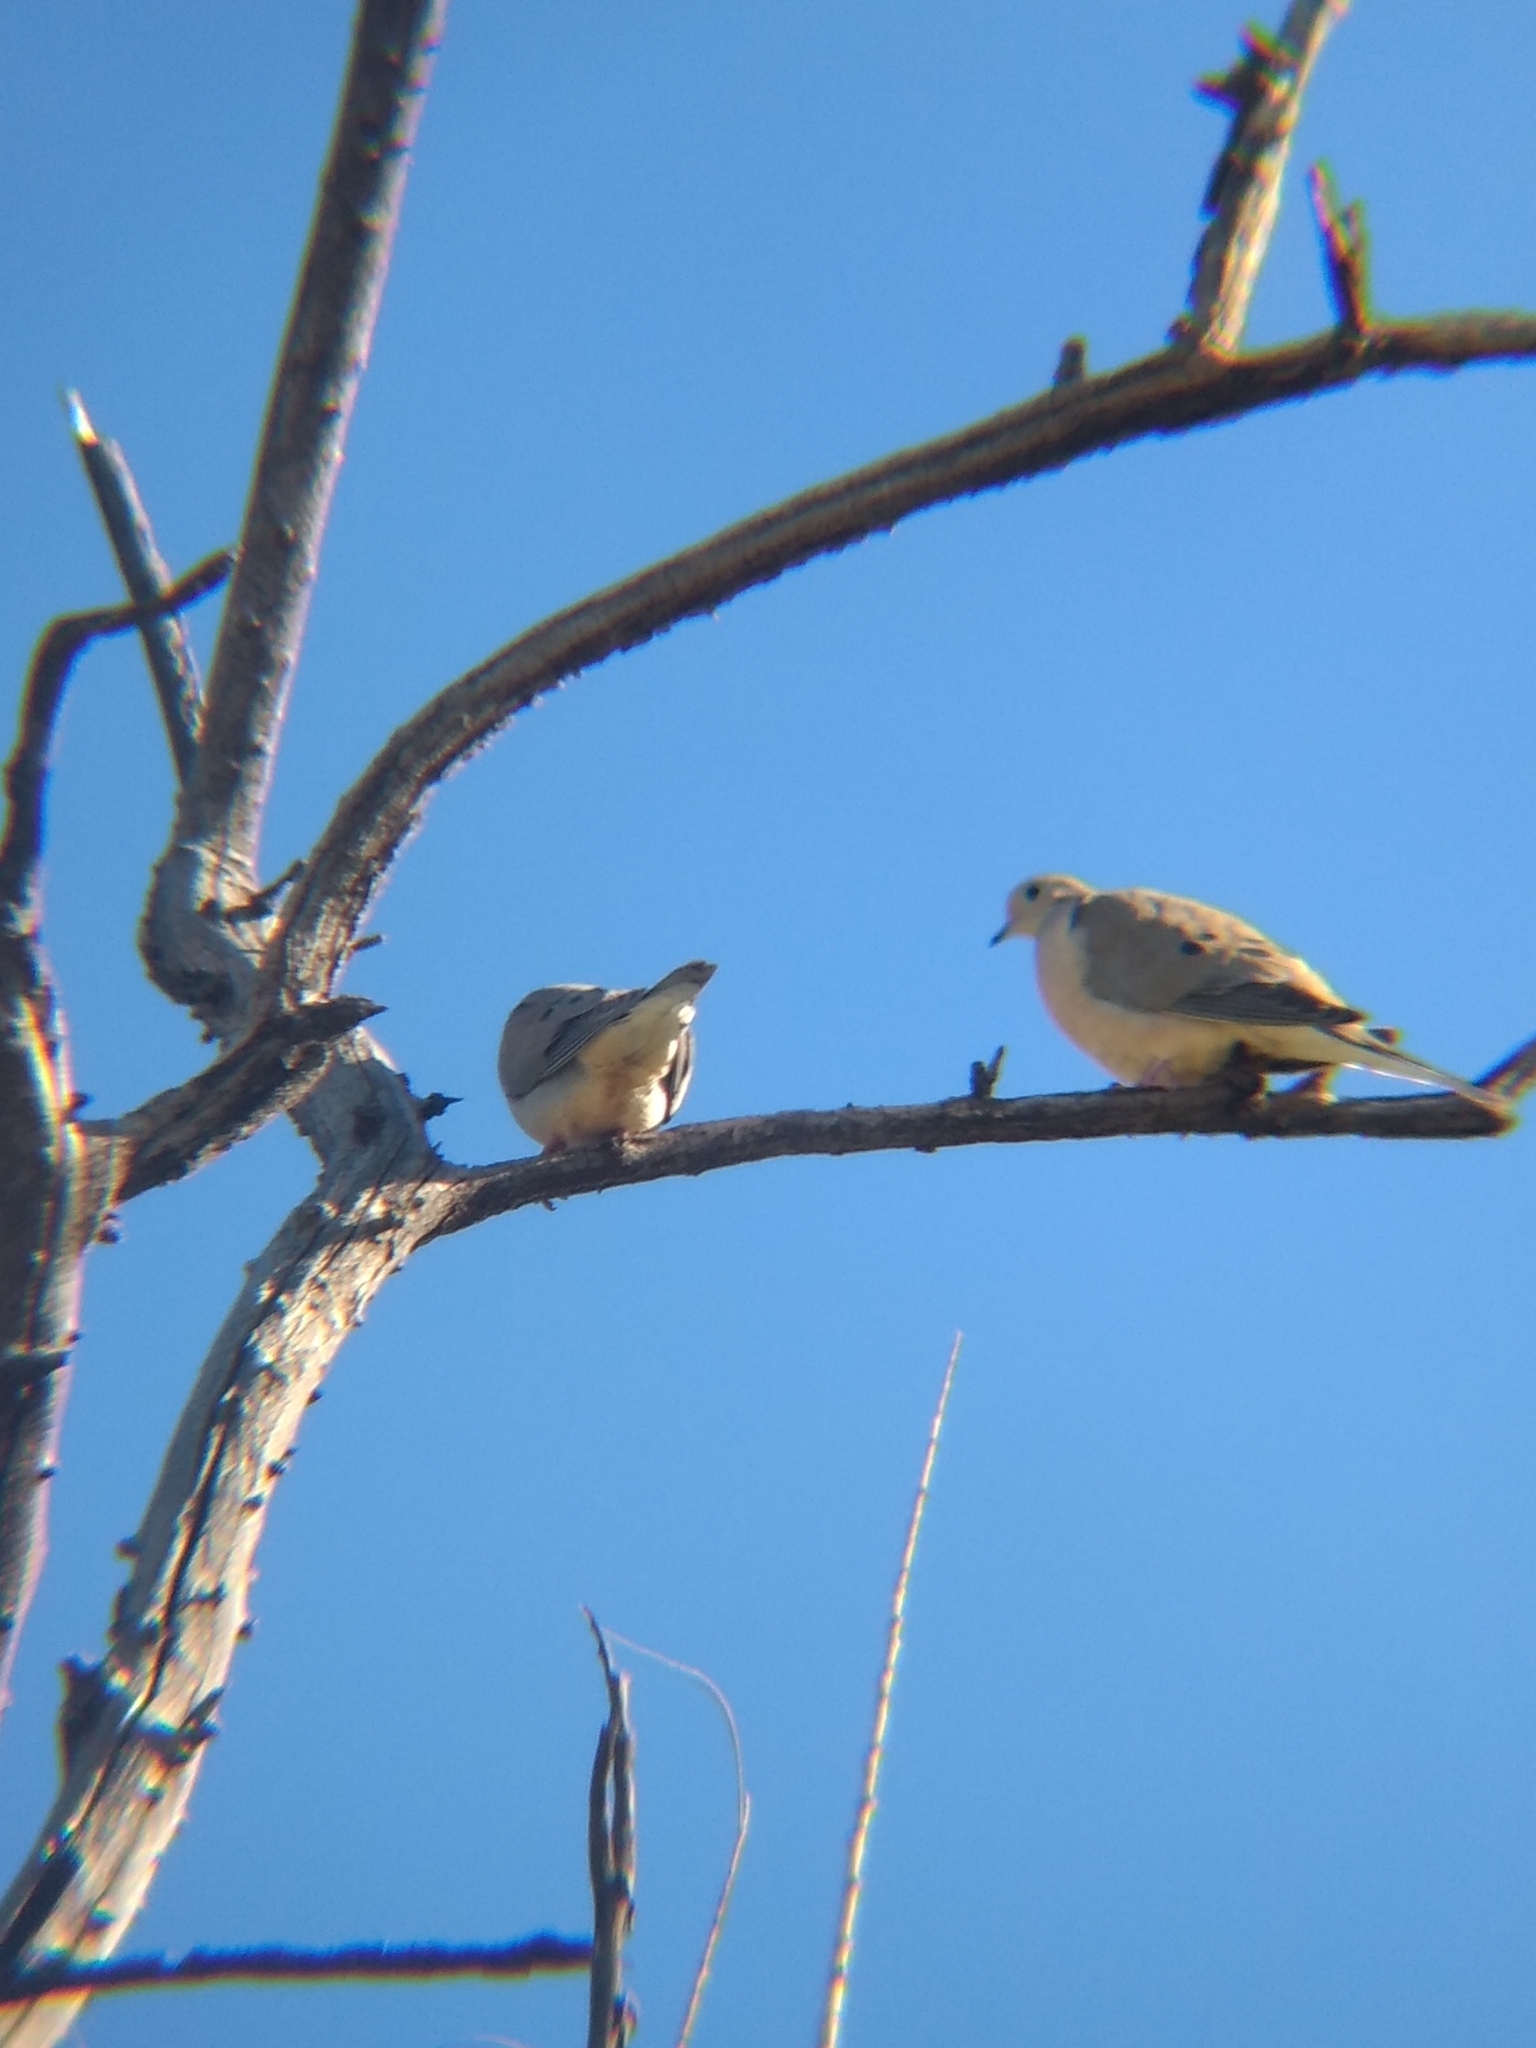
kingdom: Animalia
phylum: Chordata
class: Aves
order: Columbiformes
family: Columbidae
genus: Zenaida
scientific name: Zenaida macroura
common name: Mourning dove
